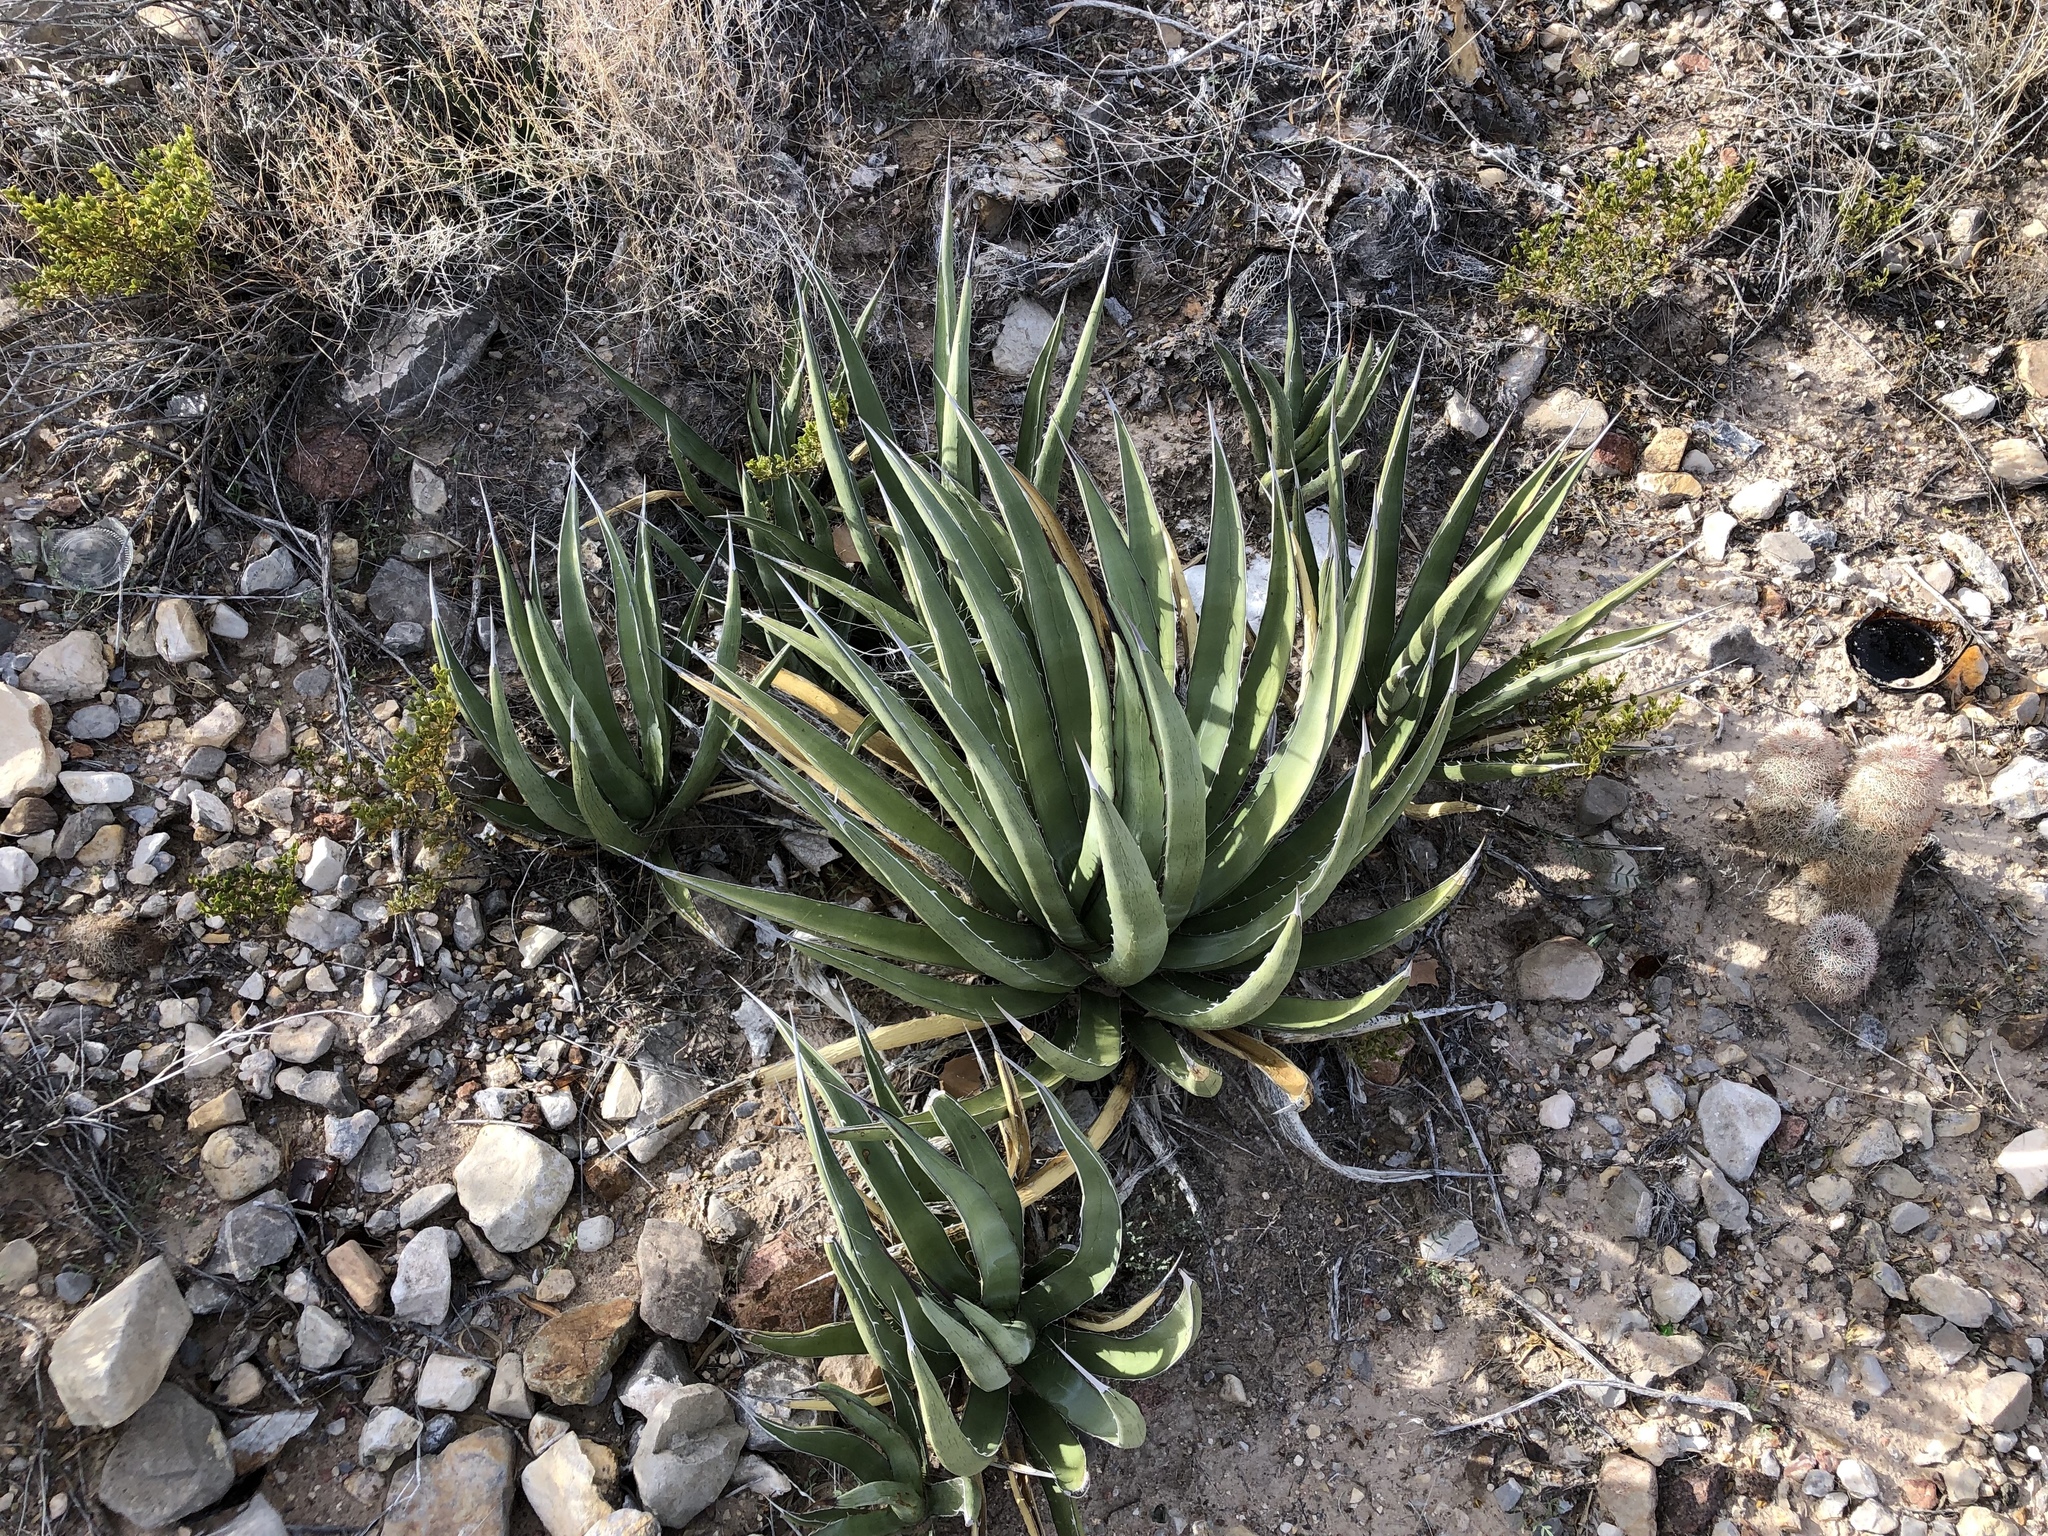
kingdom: Plantae
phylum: Tracheophyta
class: Liliopsida
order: Asparagales
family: Asparagaceae
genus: Agave
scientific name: Agave lechuguilla
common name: Lecheguilla agave
